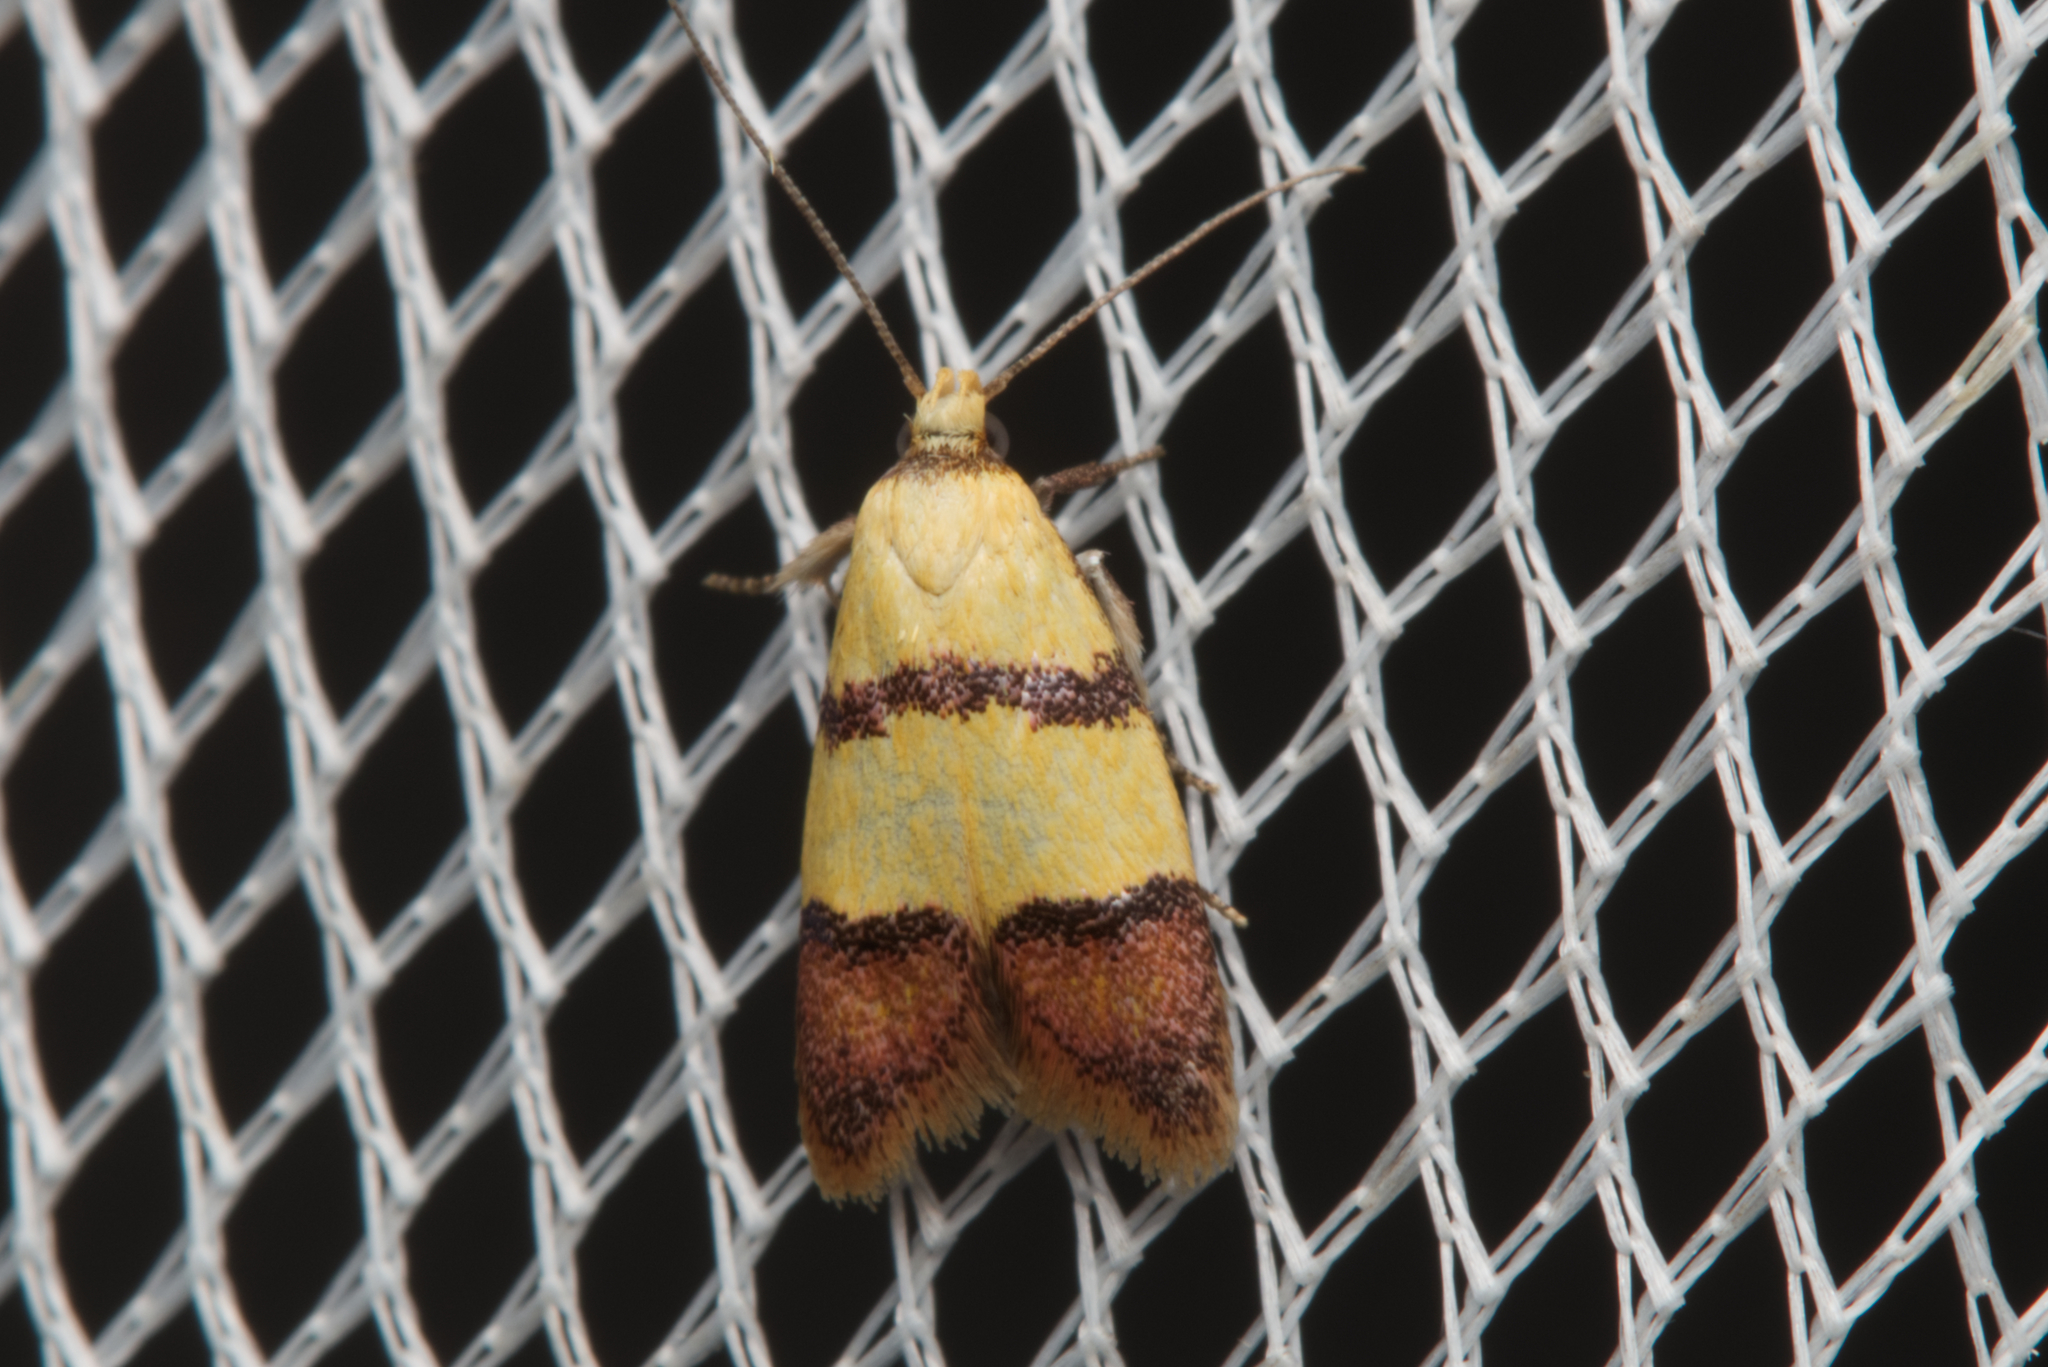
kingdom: Animalia
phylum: Arthropoda
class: Insecta
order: Lepidoptera
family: Oecophoridae
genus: Heteroteucha
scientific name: Heteroteucha distephana
